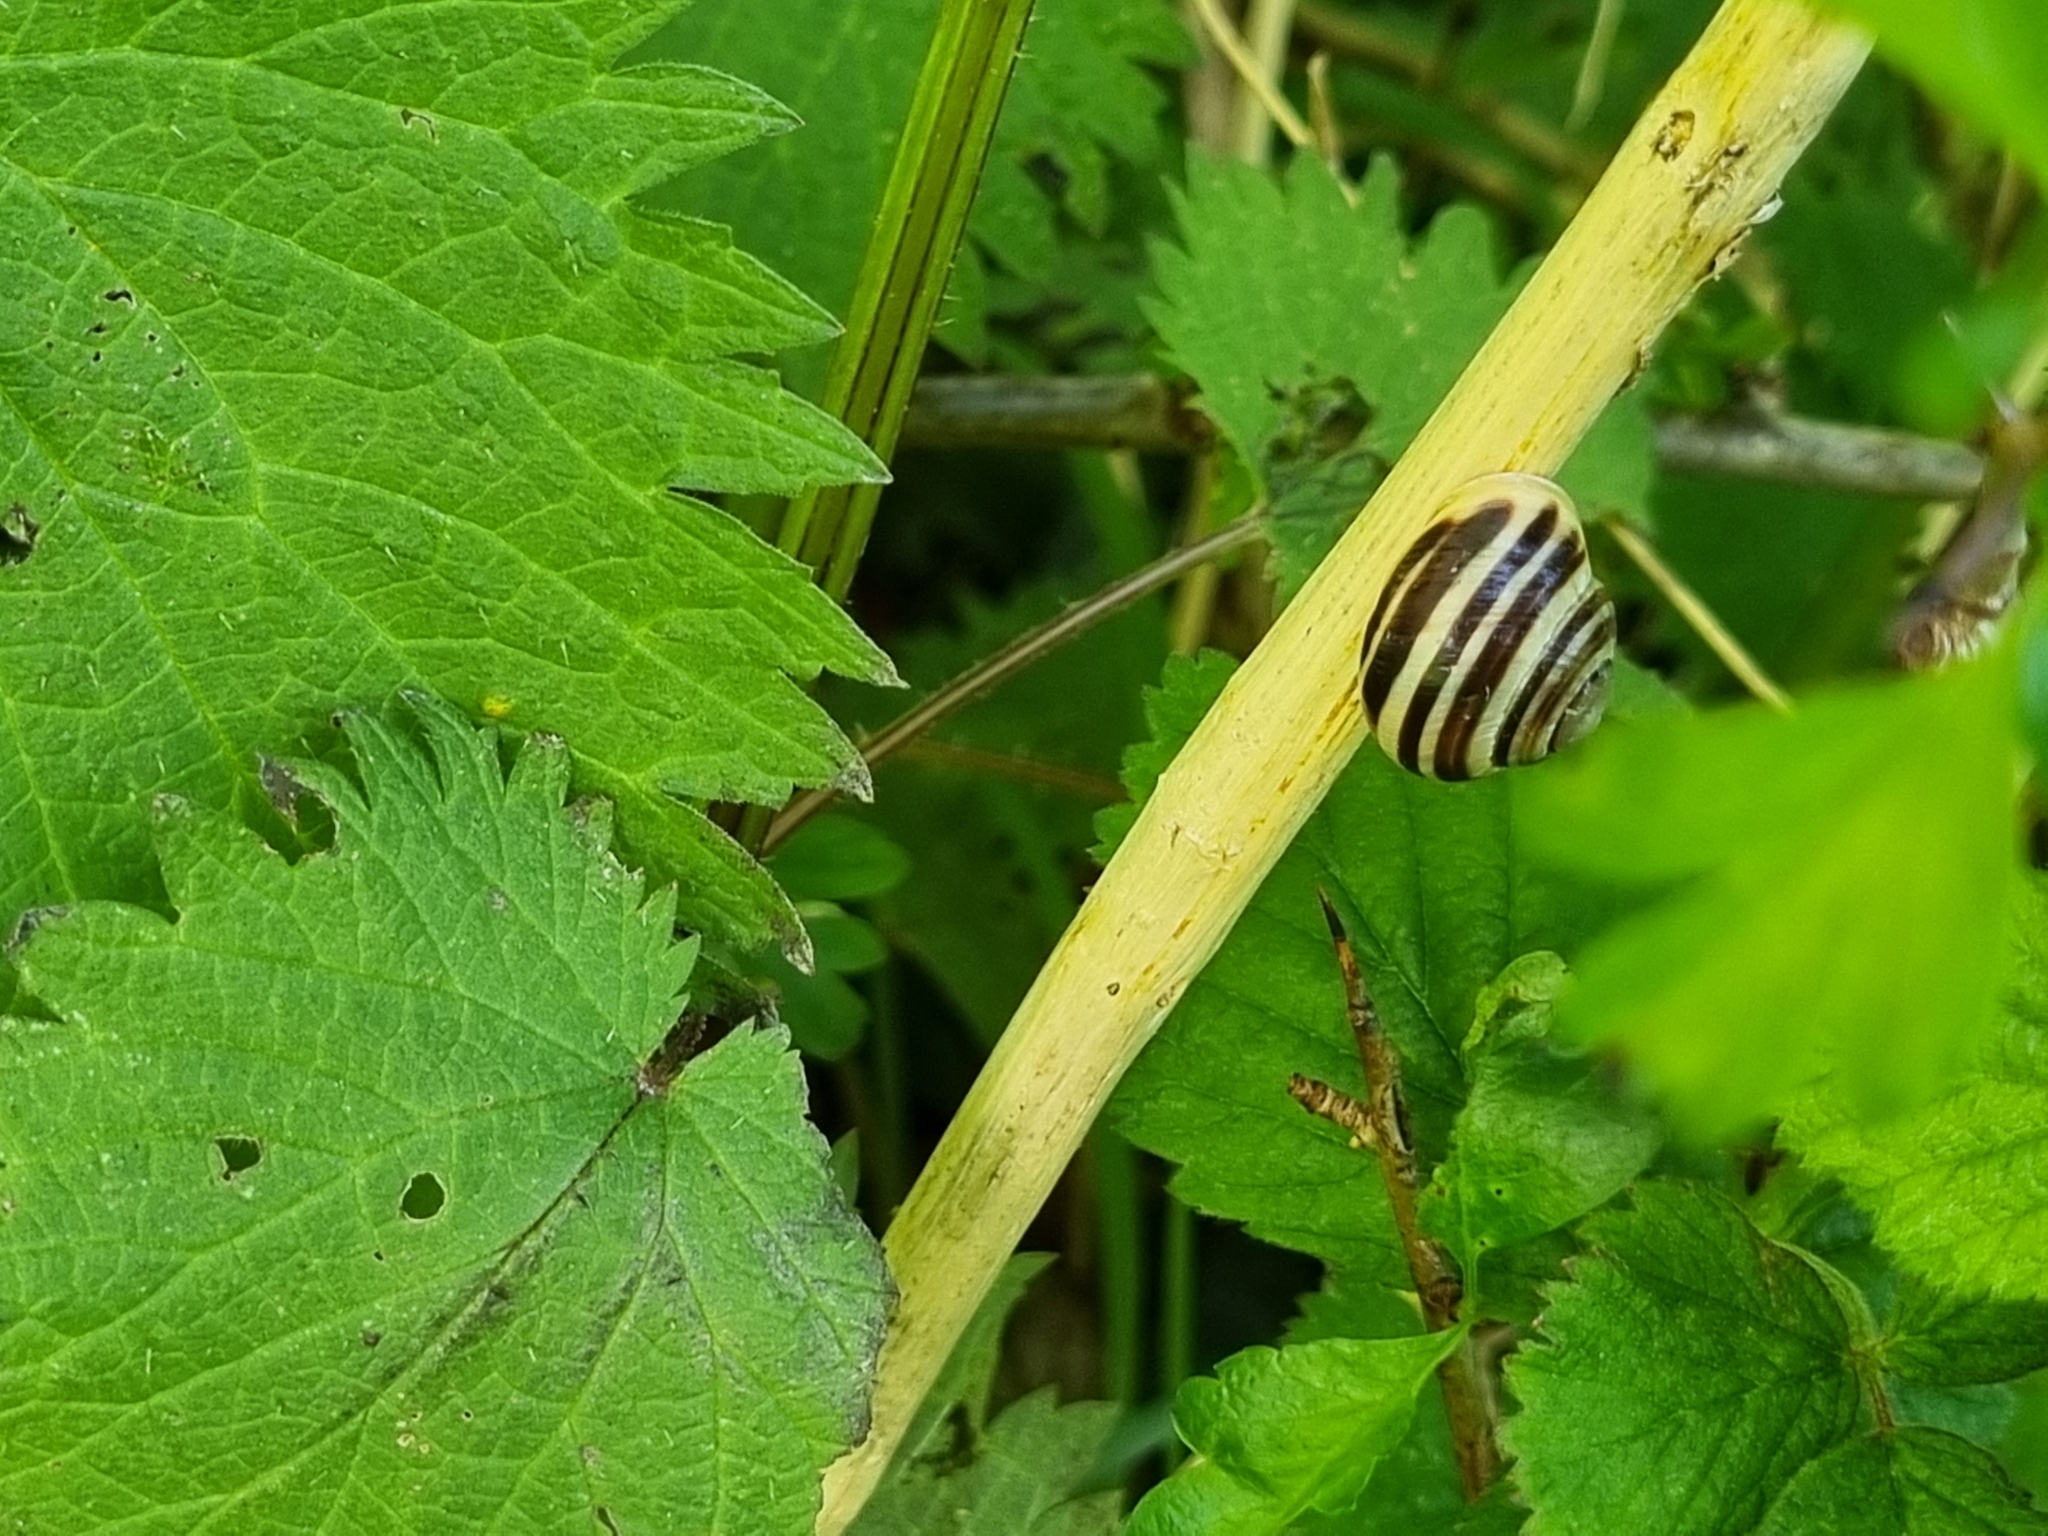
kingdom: Animalia
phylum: Mollusca
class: Gastropoda
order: Stylommatophora
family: Helicidae
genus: Cepaea
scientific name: Cepaea hortensis
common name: White-lip gardensnail
